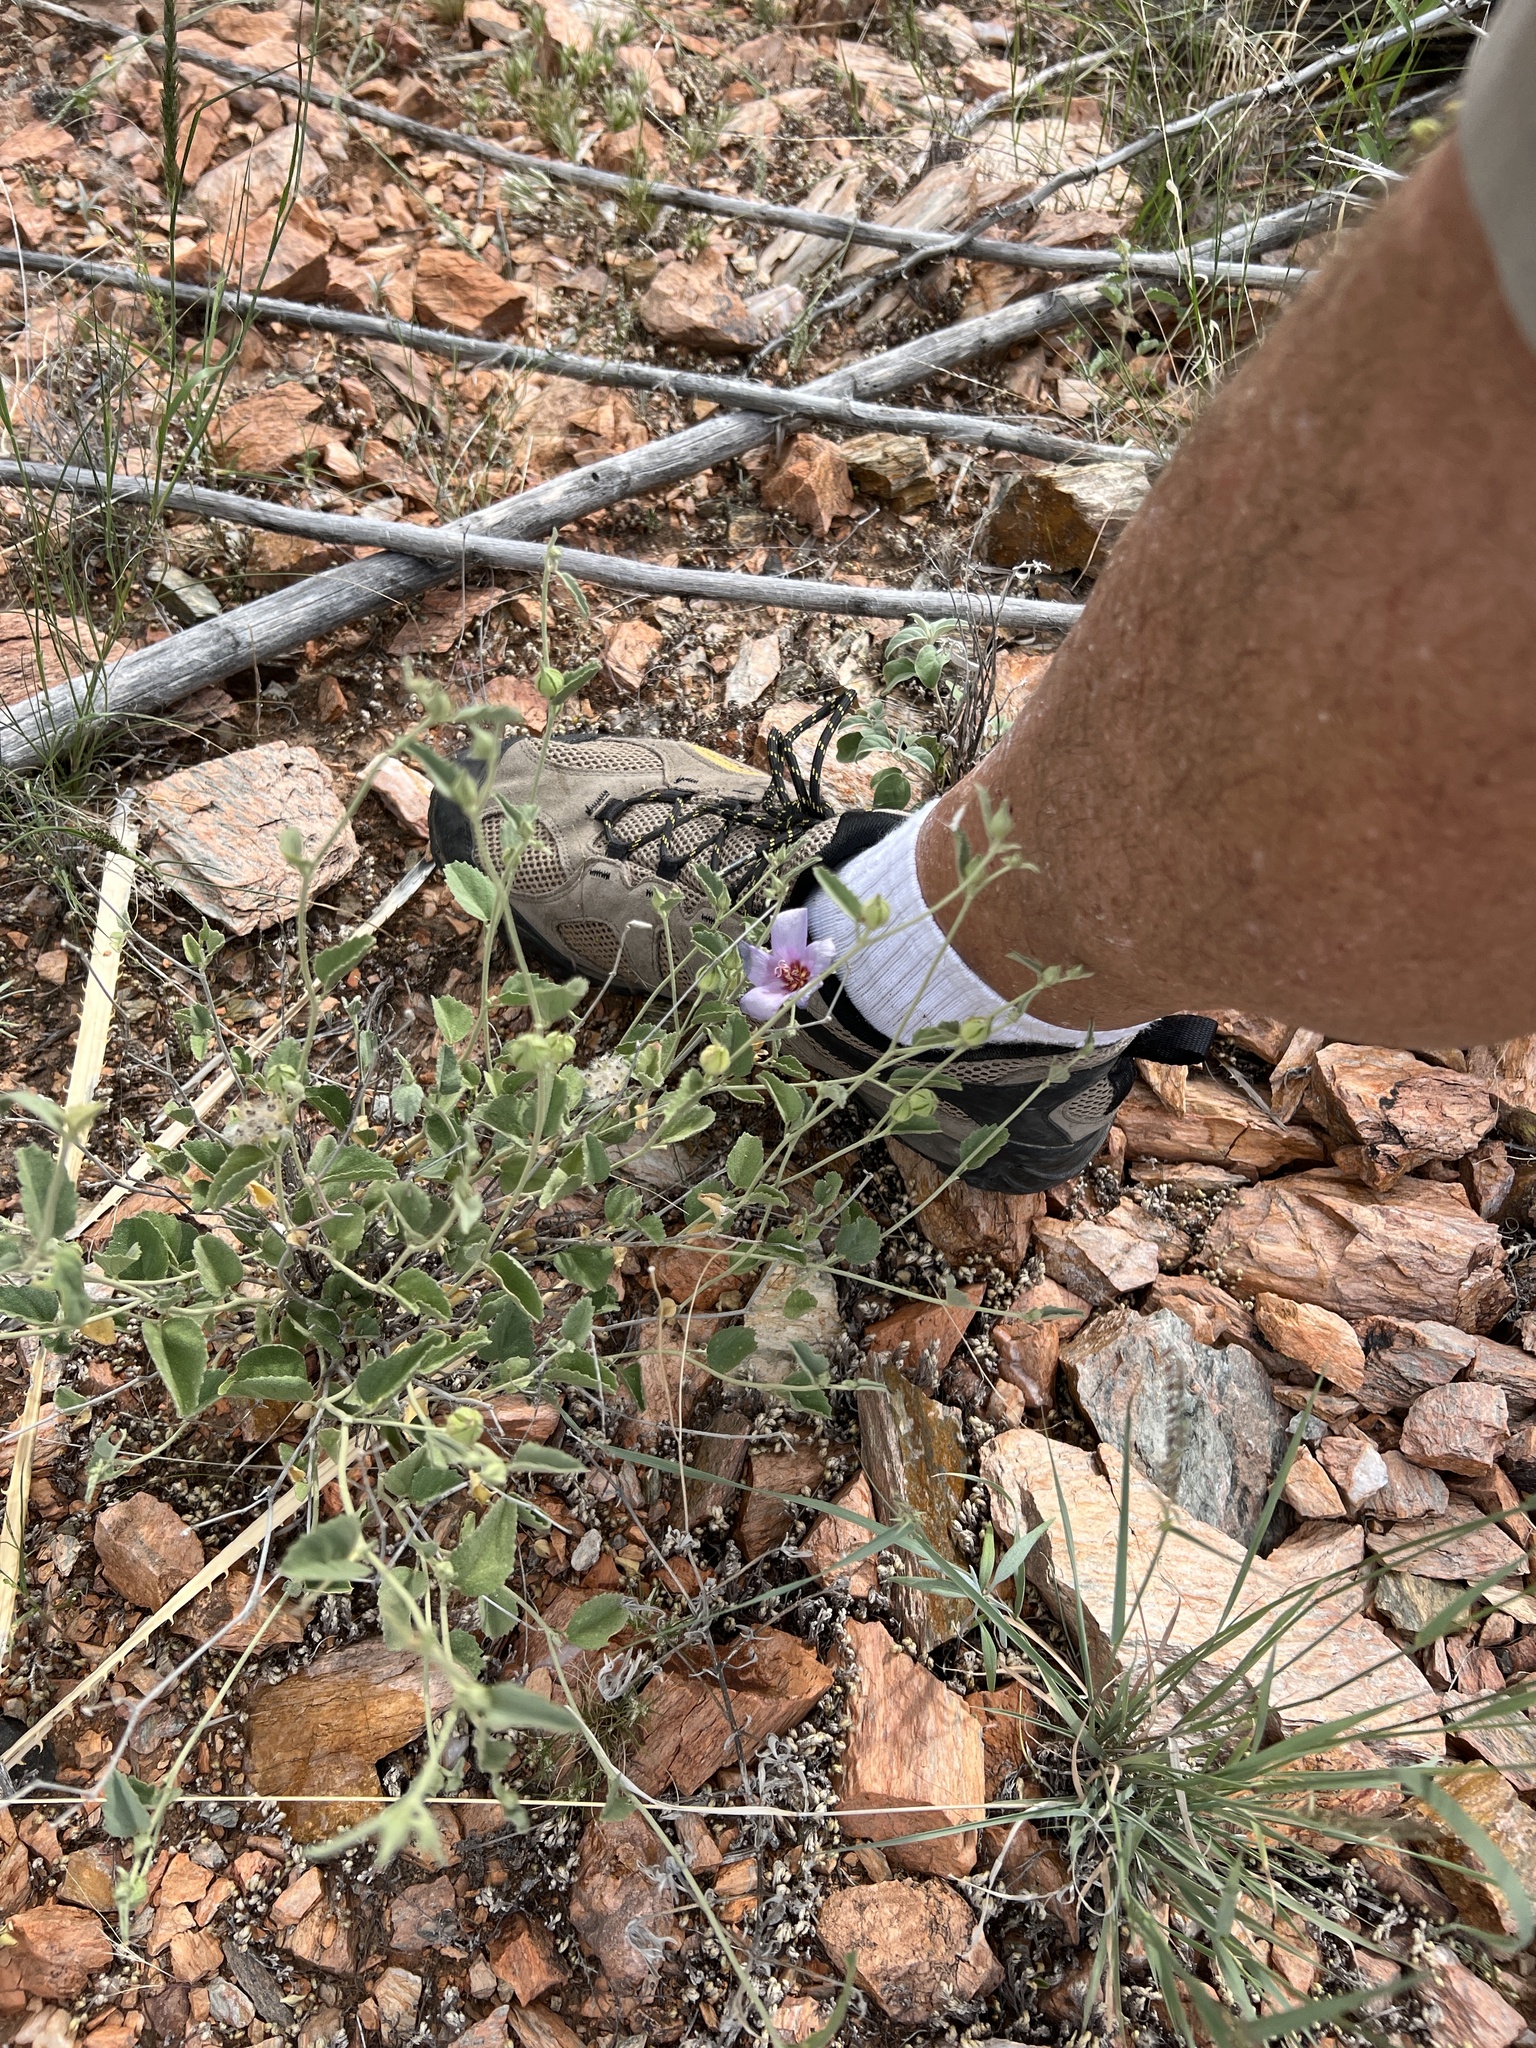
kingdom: Plantae
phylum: Tracheophyta
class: Magnoliopsida
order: Malvales
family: Malvaceae
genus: Hibiscus
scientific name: Hibiscus denudatus
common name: Paleface
